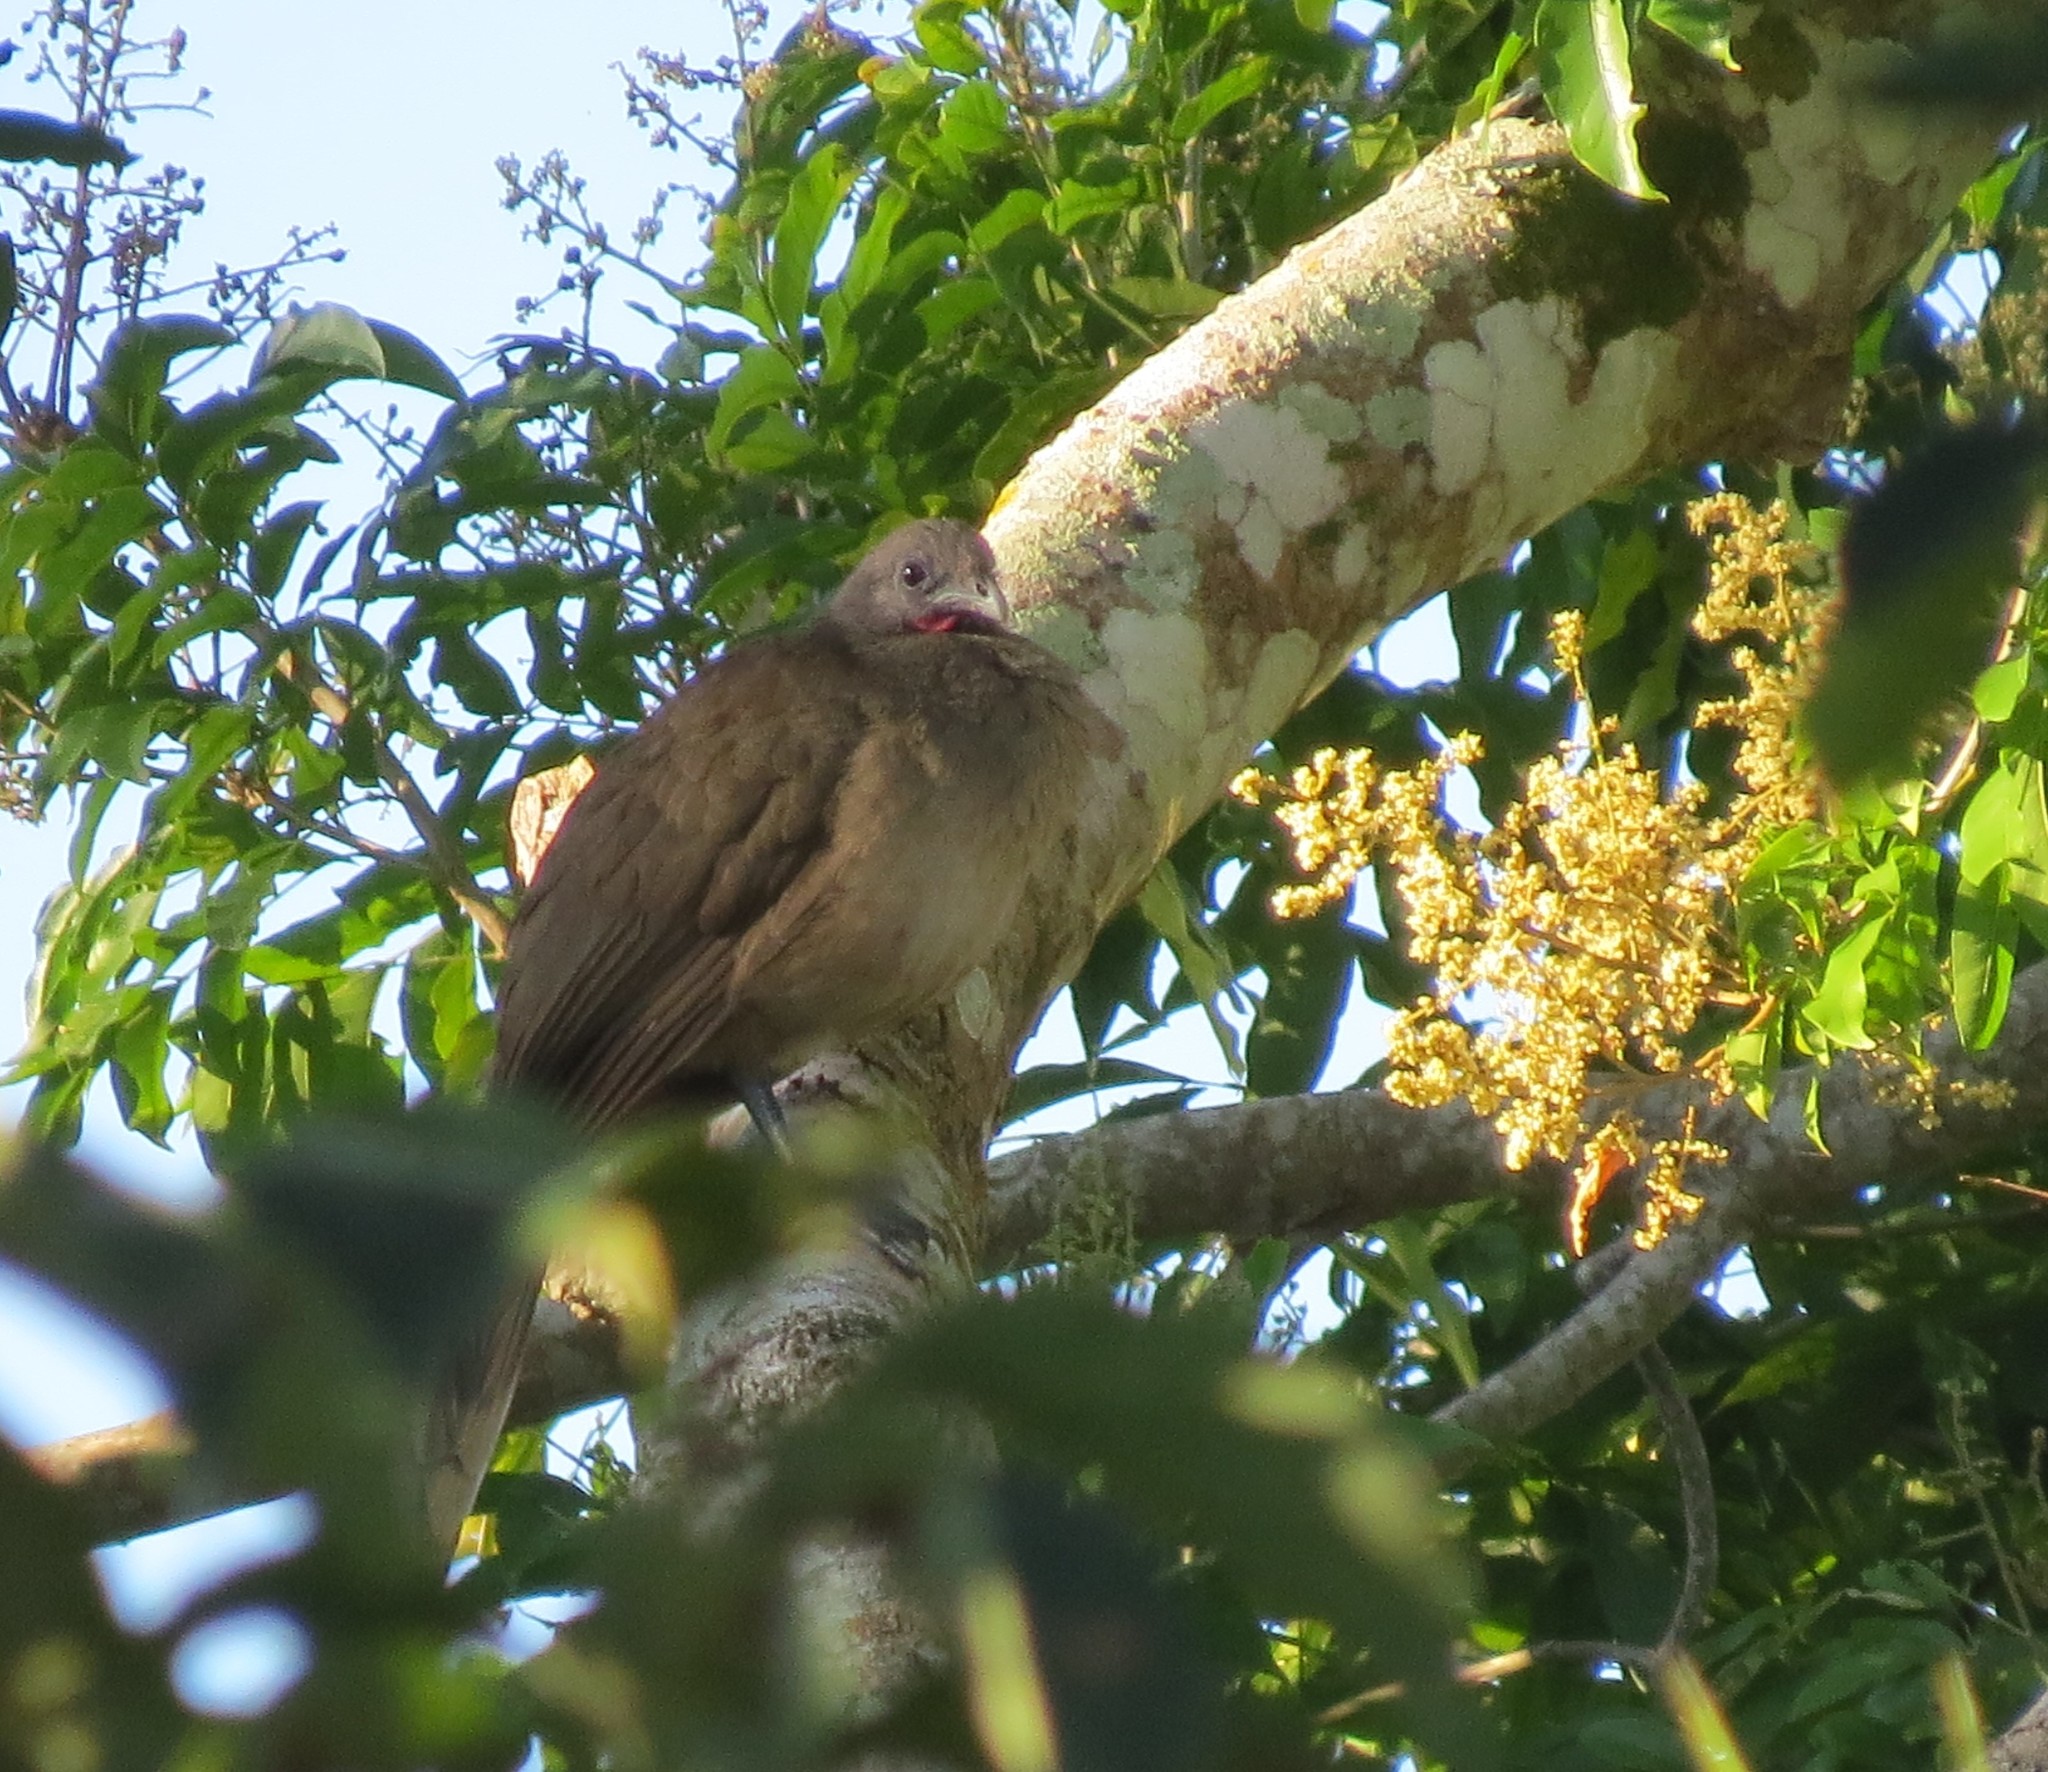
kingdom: Animalia
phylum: Chordata
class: Aves
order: Galliformes
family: Cracidae
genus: Ortalis
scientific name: Ortalis vetula
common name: Plain chachalaca
